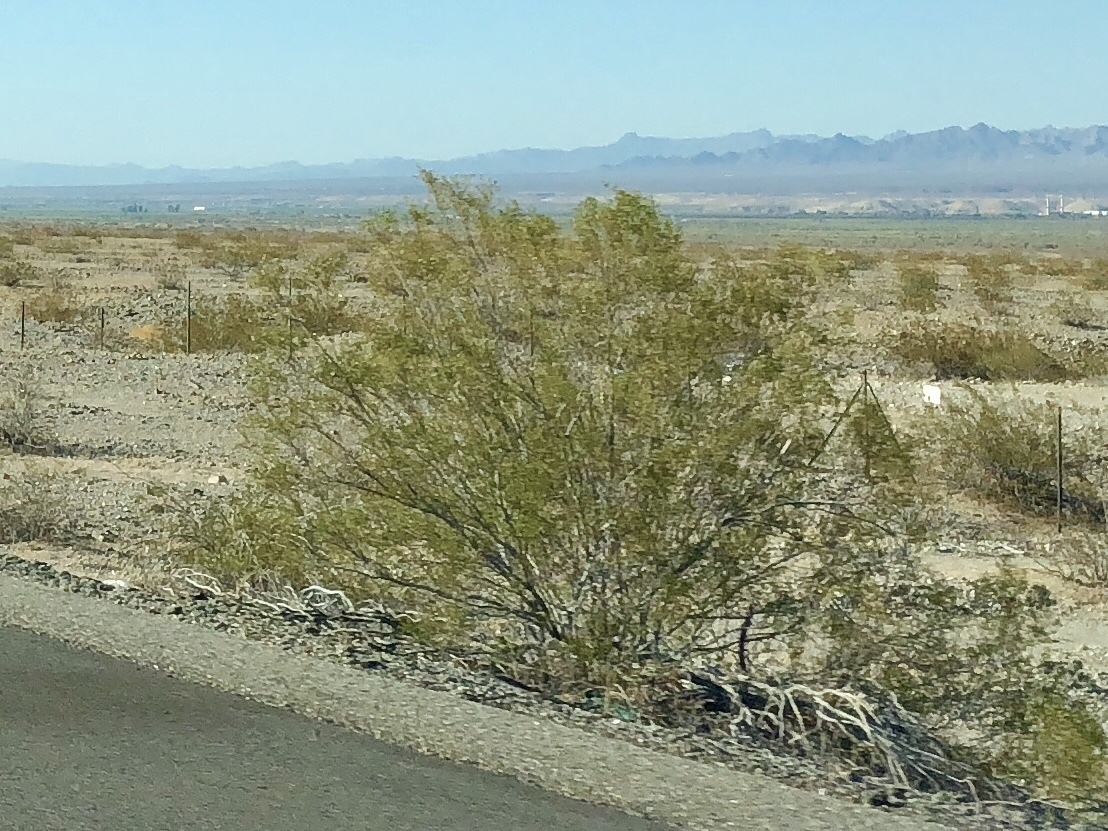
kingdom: Plantae
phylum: Tracheophyta
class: Magnoliopsida
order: Zygophyllales
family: Zygophyllaceae
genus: Larrea
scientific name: Larrea tridentata
